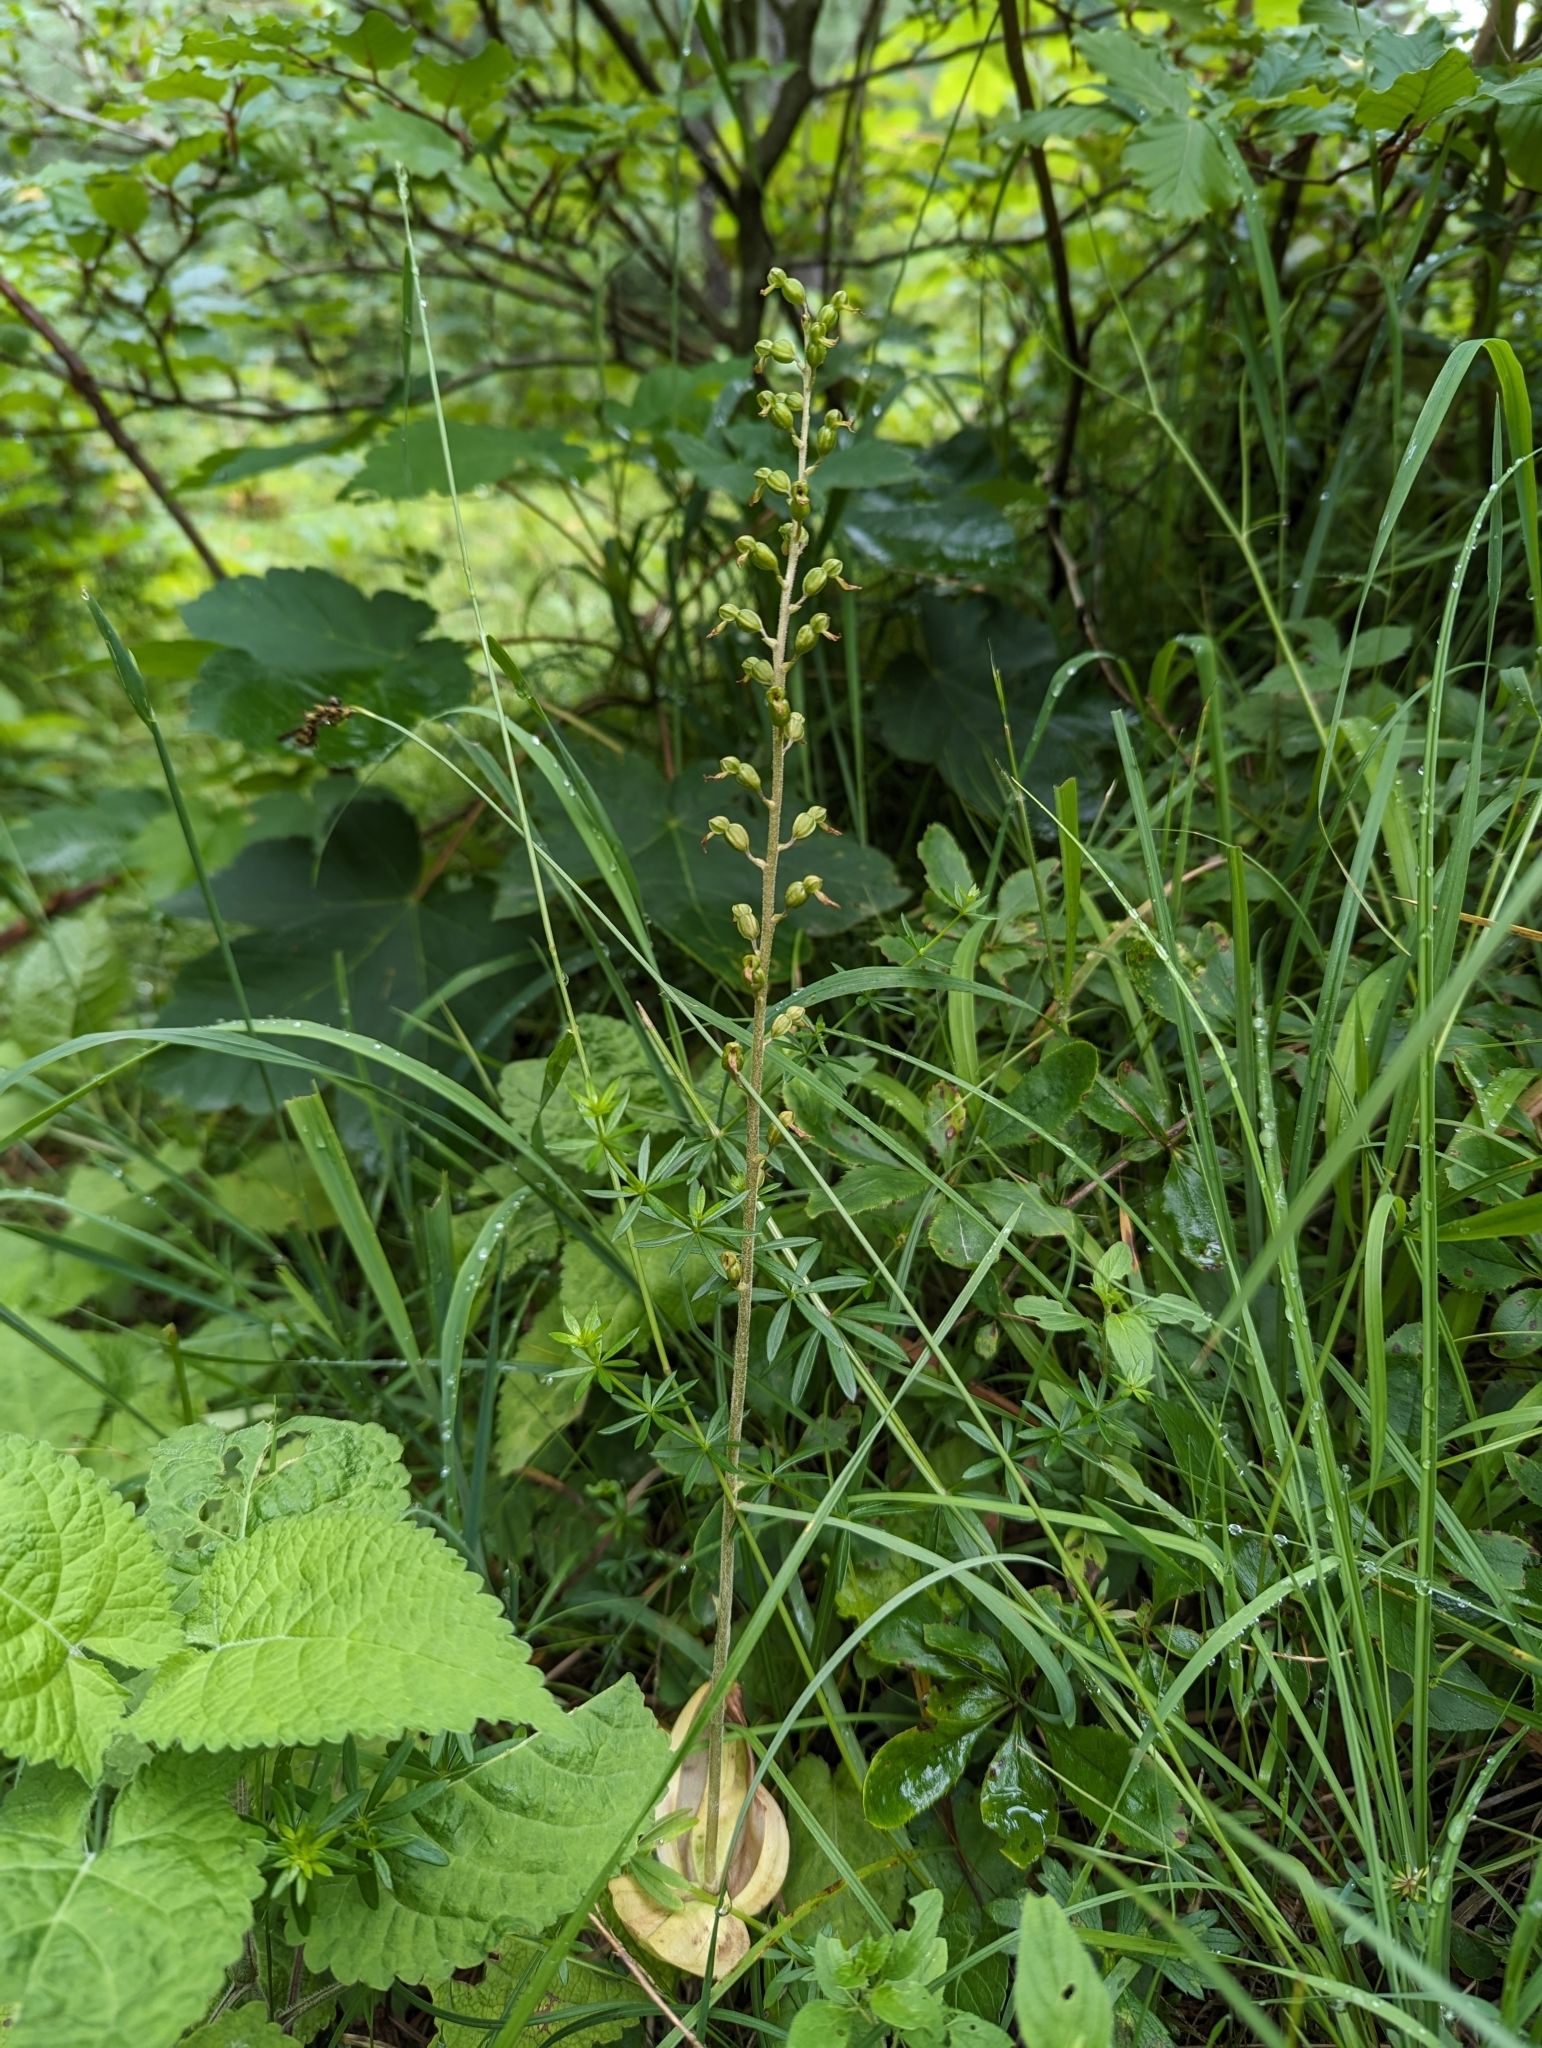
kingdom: Plantae
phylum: Tracheophyta
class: Liliopsida
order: Asparagales
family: Orchidaceae
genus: Neottia
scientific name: Neottia ovata
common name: Common twayblade
